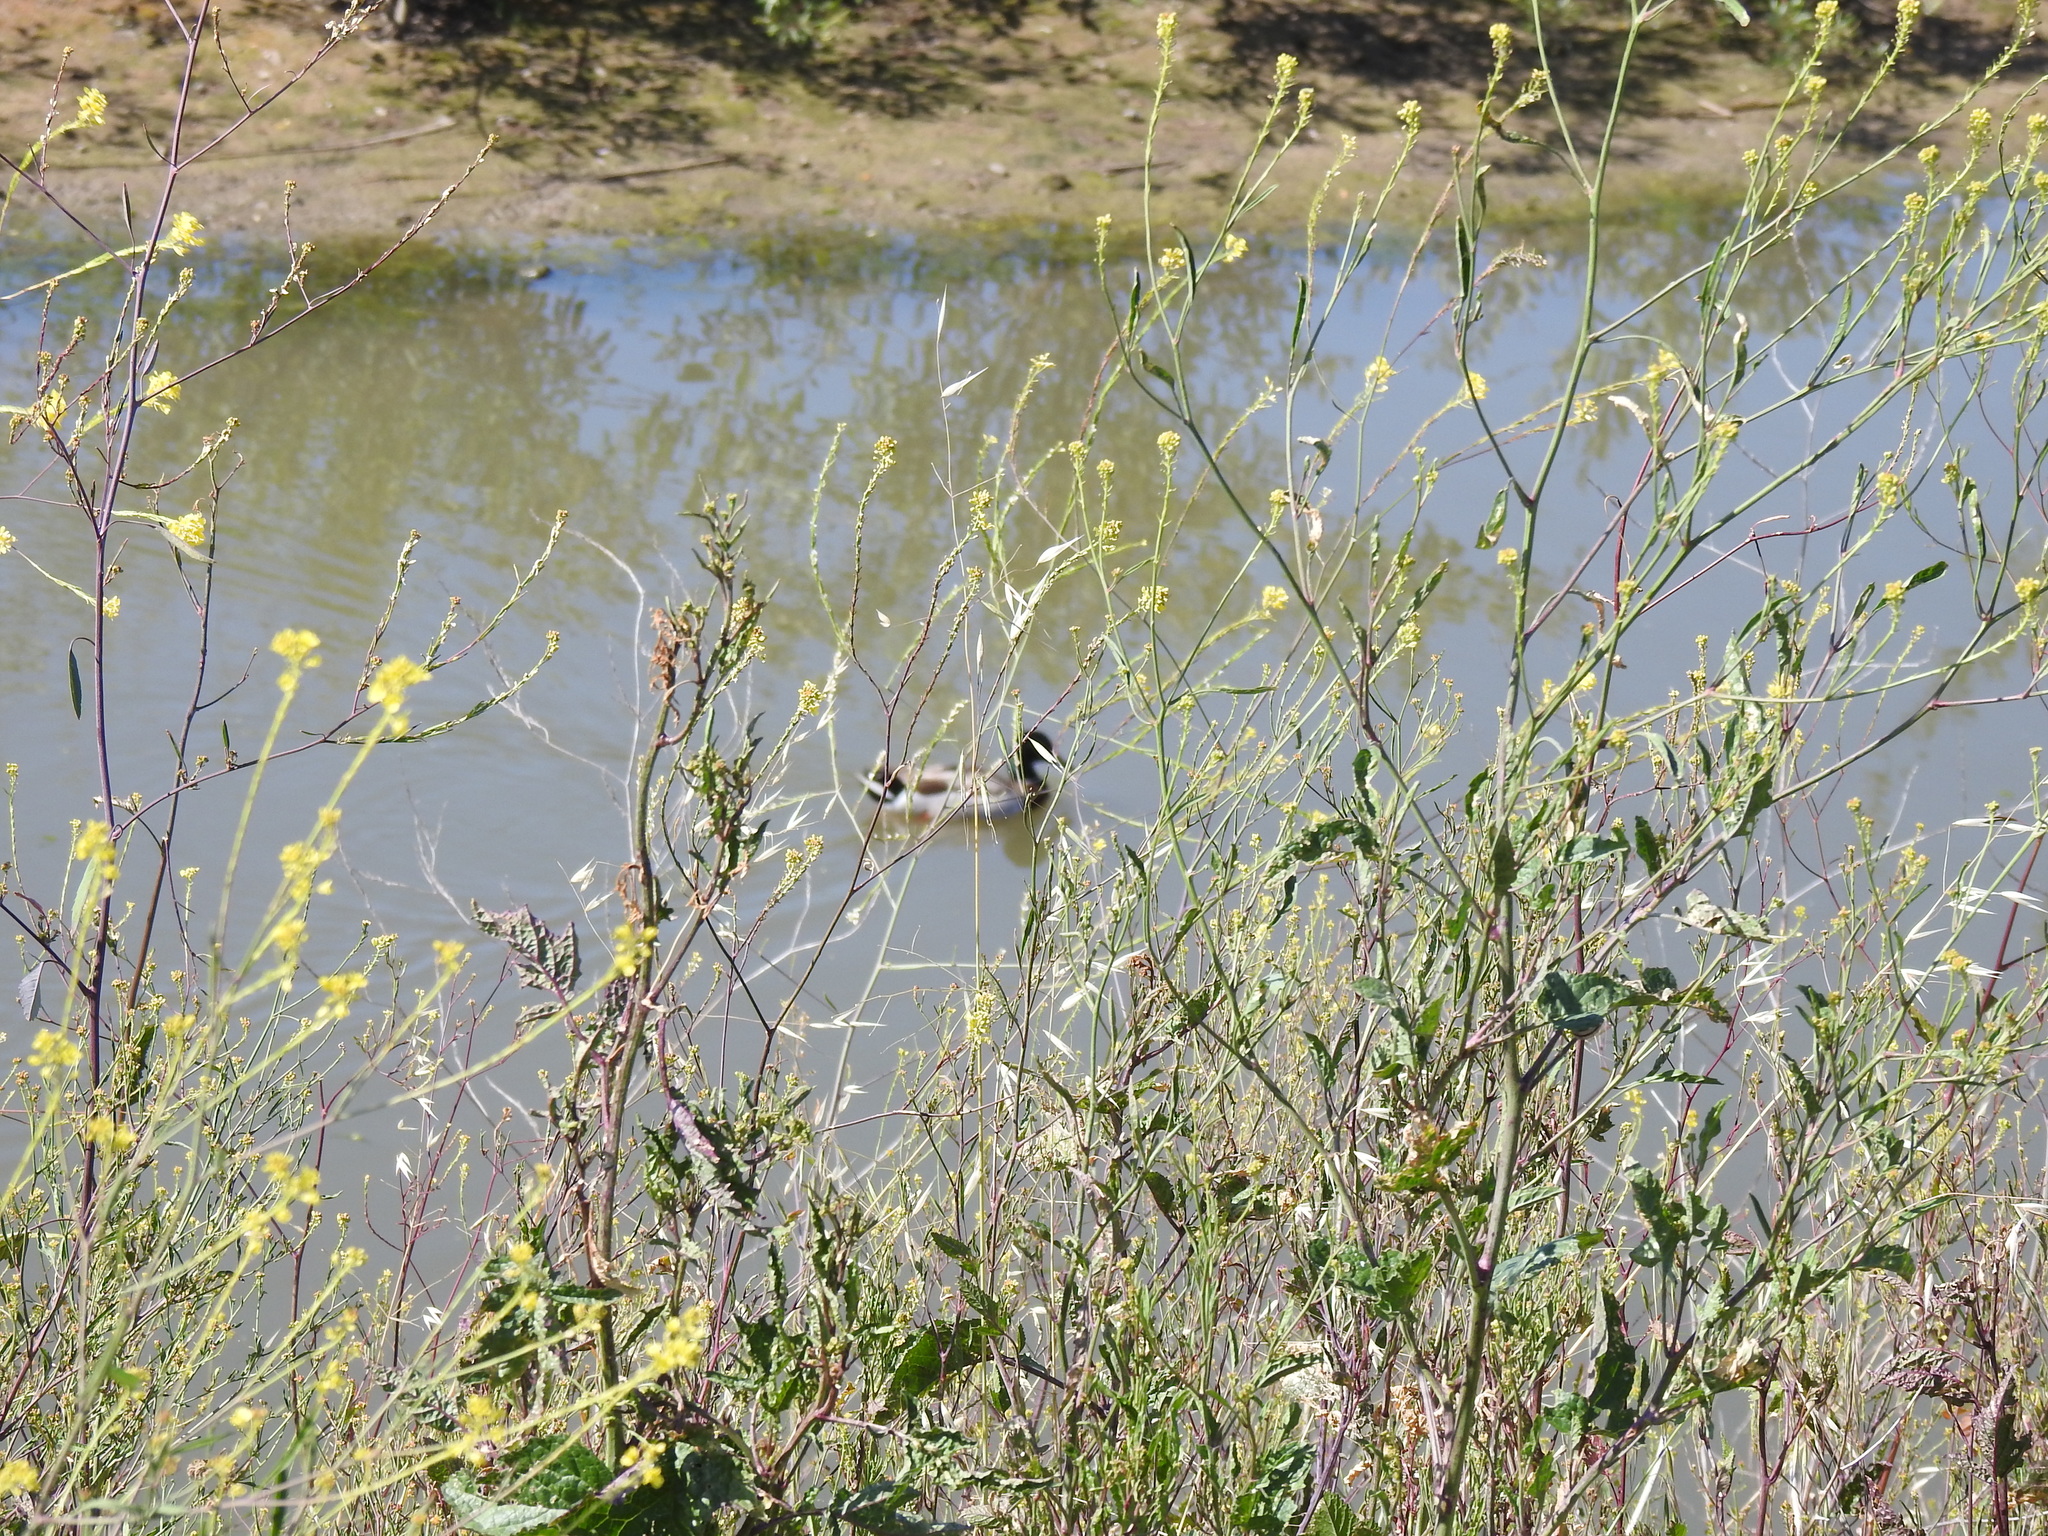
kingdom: Animalia
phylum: Chordata
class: Aves
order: Anseriformes
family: Anatidae
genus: Anas
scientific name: Anas platyrhynchos
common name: Mallard
